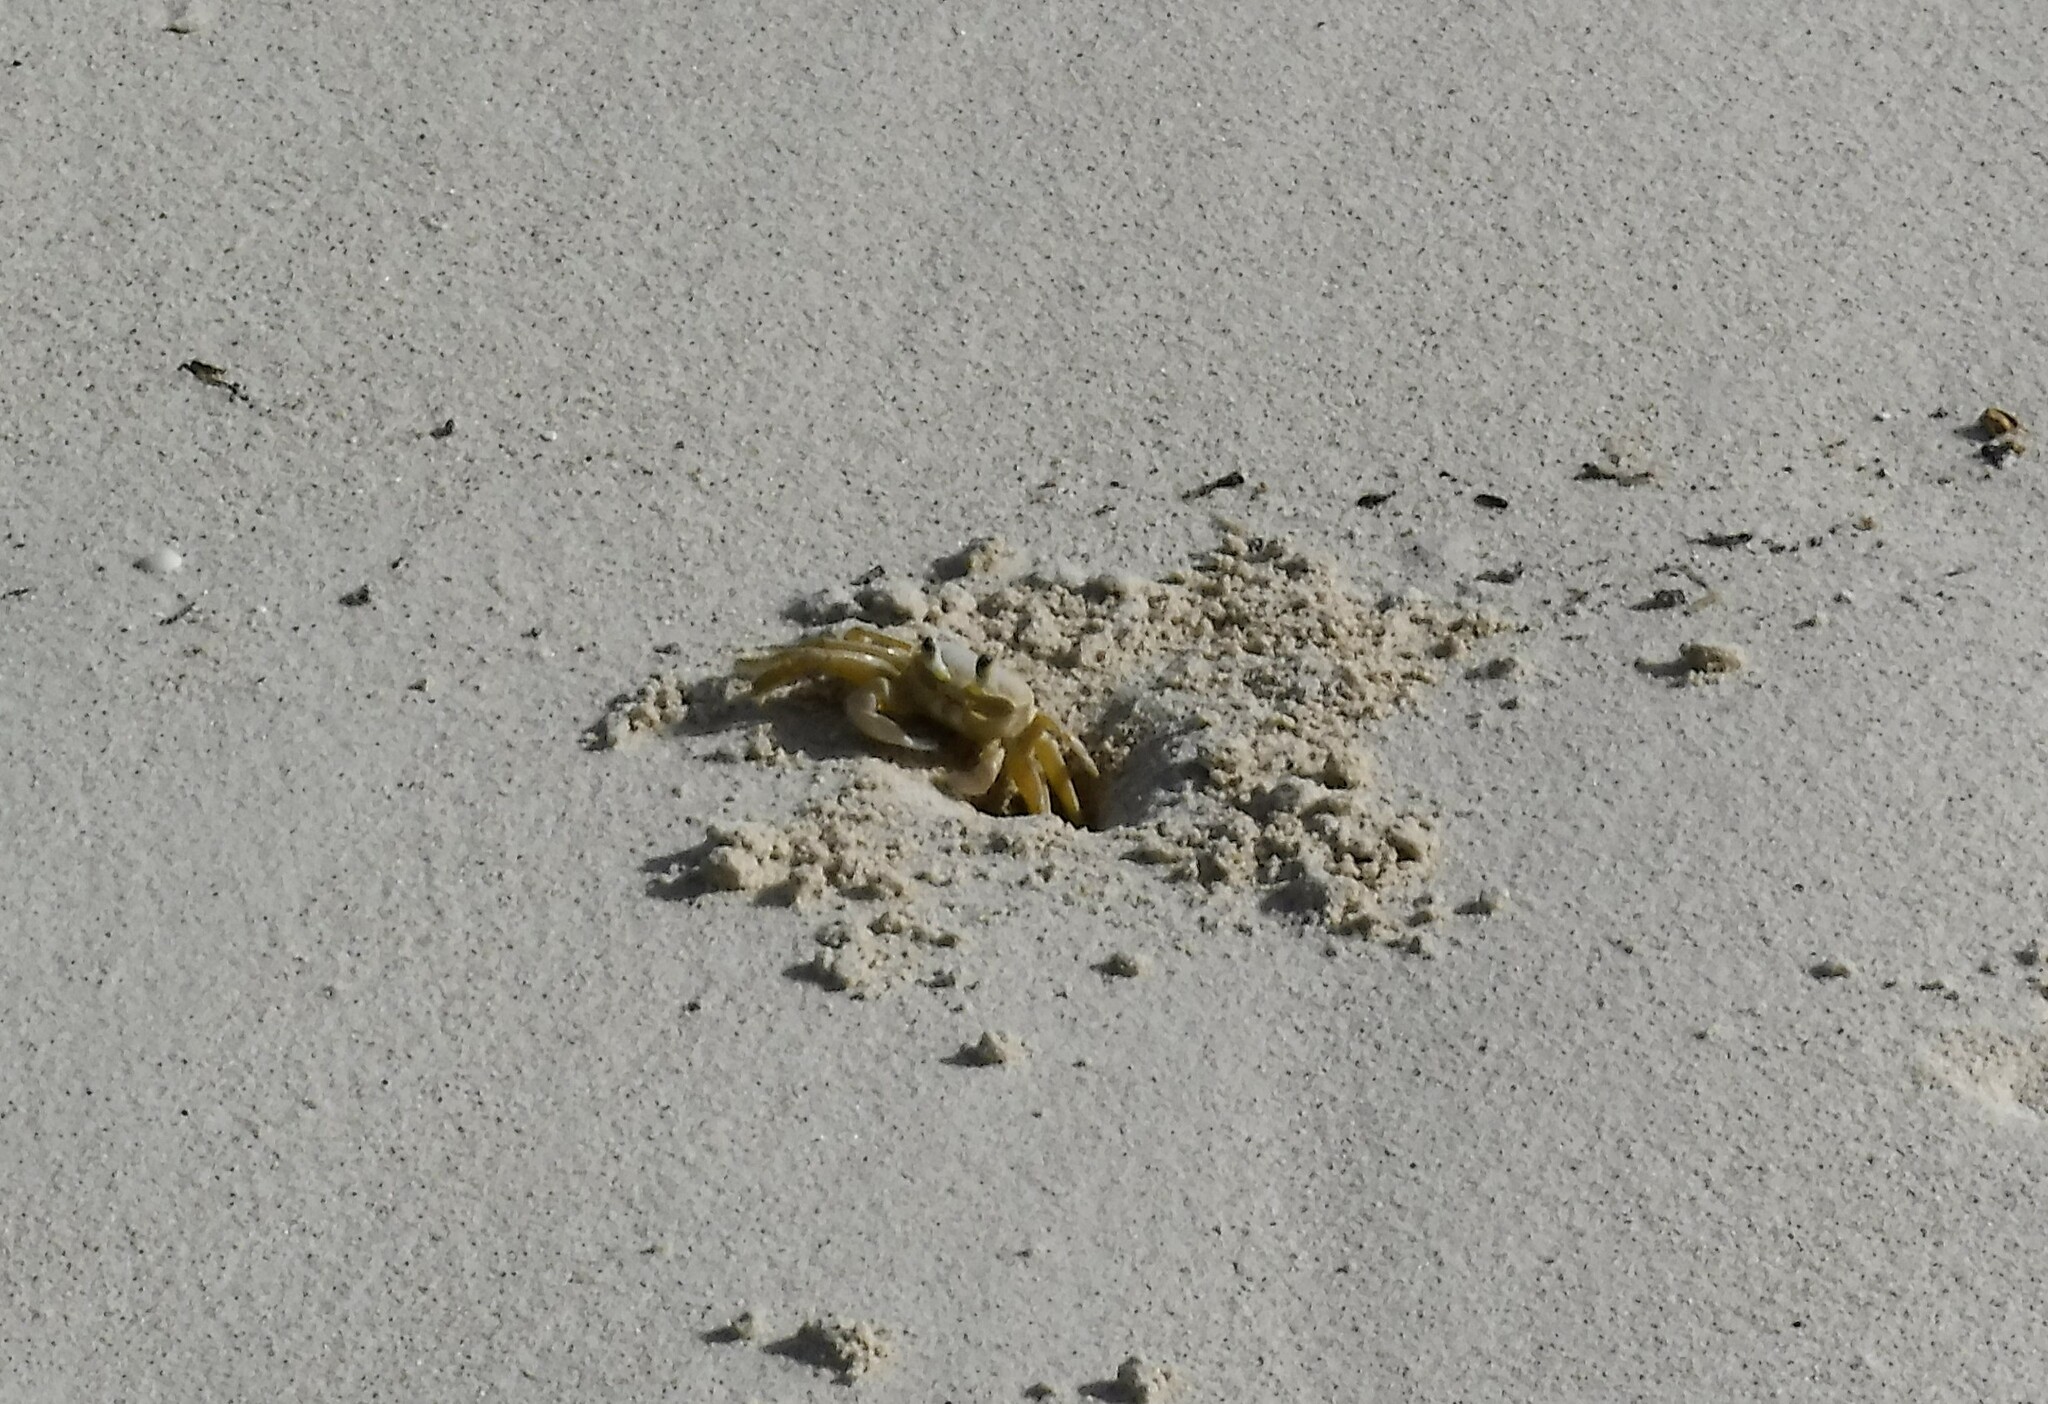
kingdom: Animalia
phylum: Arthropoda
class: Malacostraca
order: Decapoda
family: Ocypodidae
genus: Ocypode
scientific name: Ocypode quadrata
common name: Ghost crab
